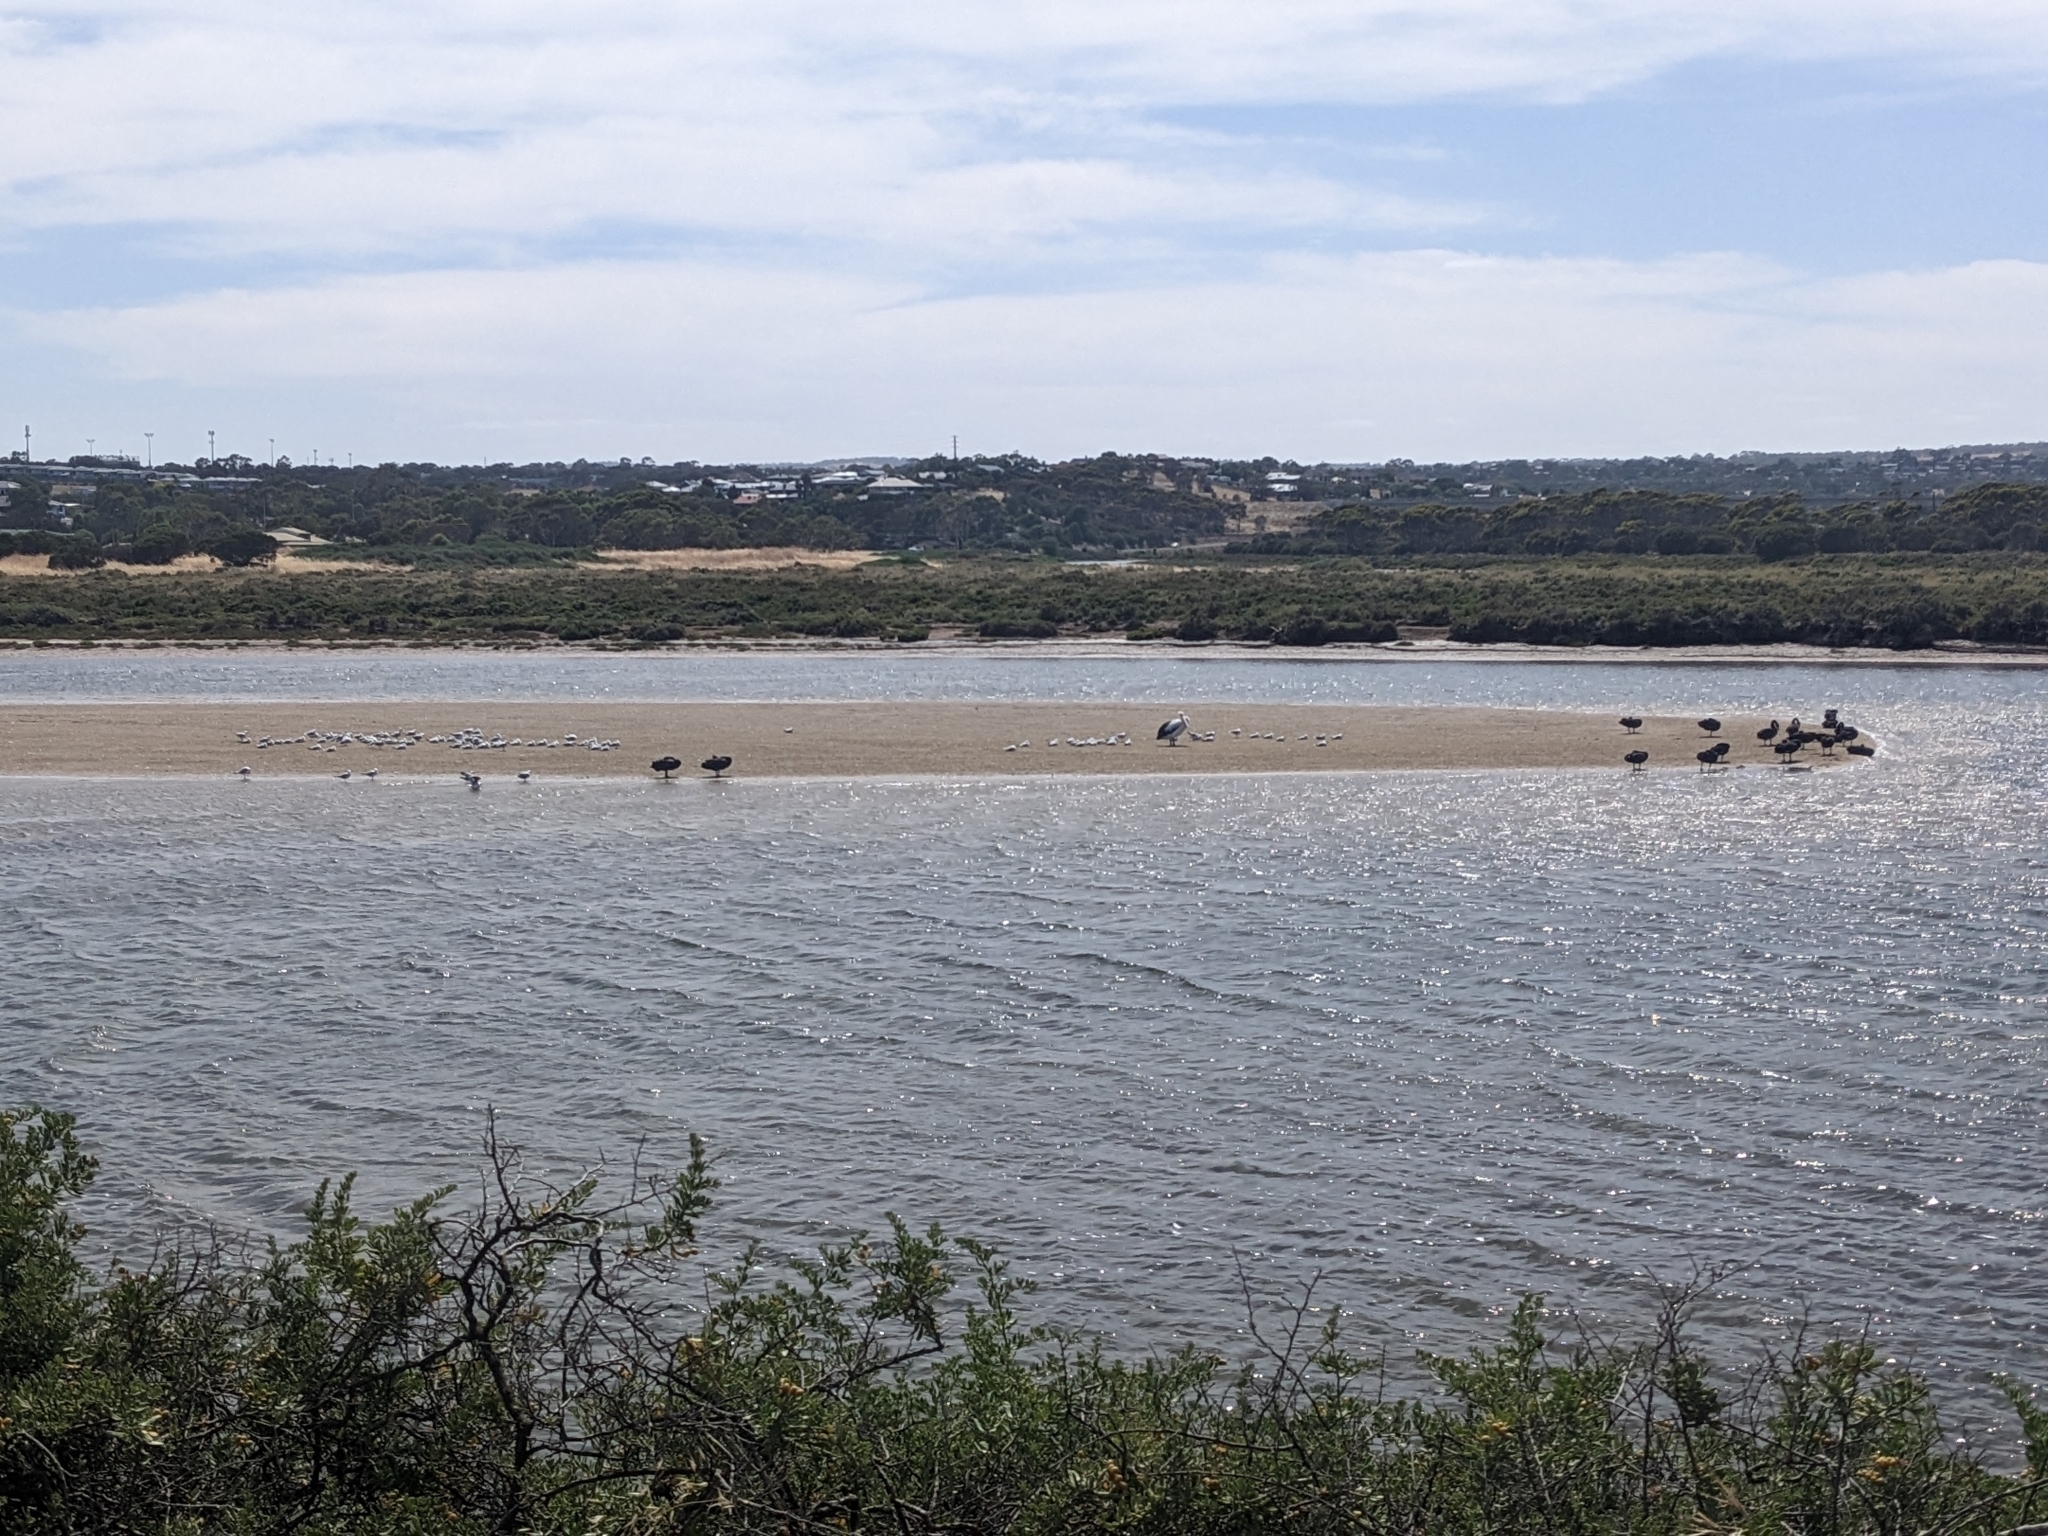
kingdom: Animalia
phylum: Chordata
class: Aves
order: Anseriformes
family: Anatidae
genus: Cygnus
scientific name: Cygnus atratus
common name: Black swan
